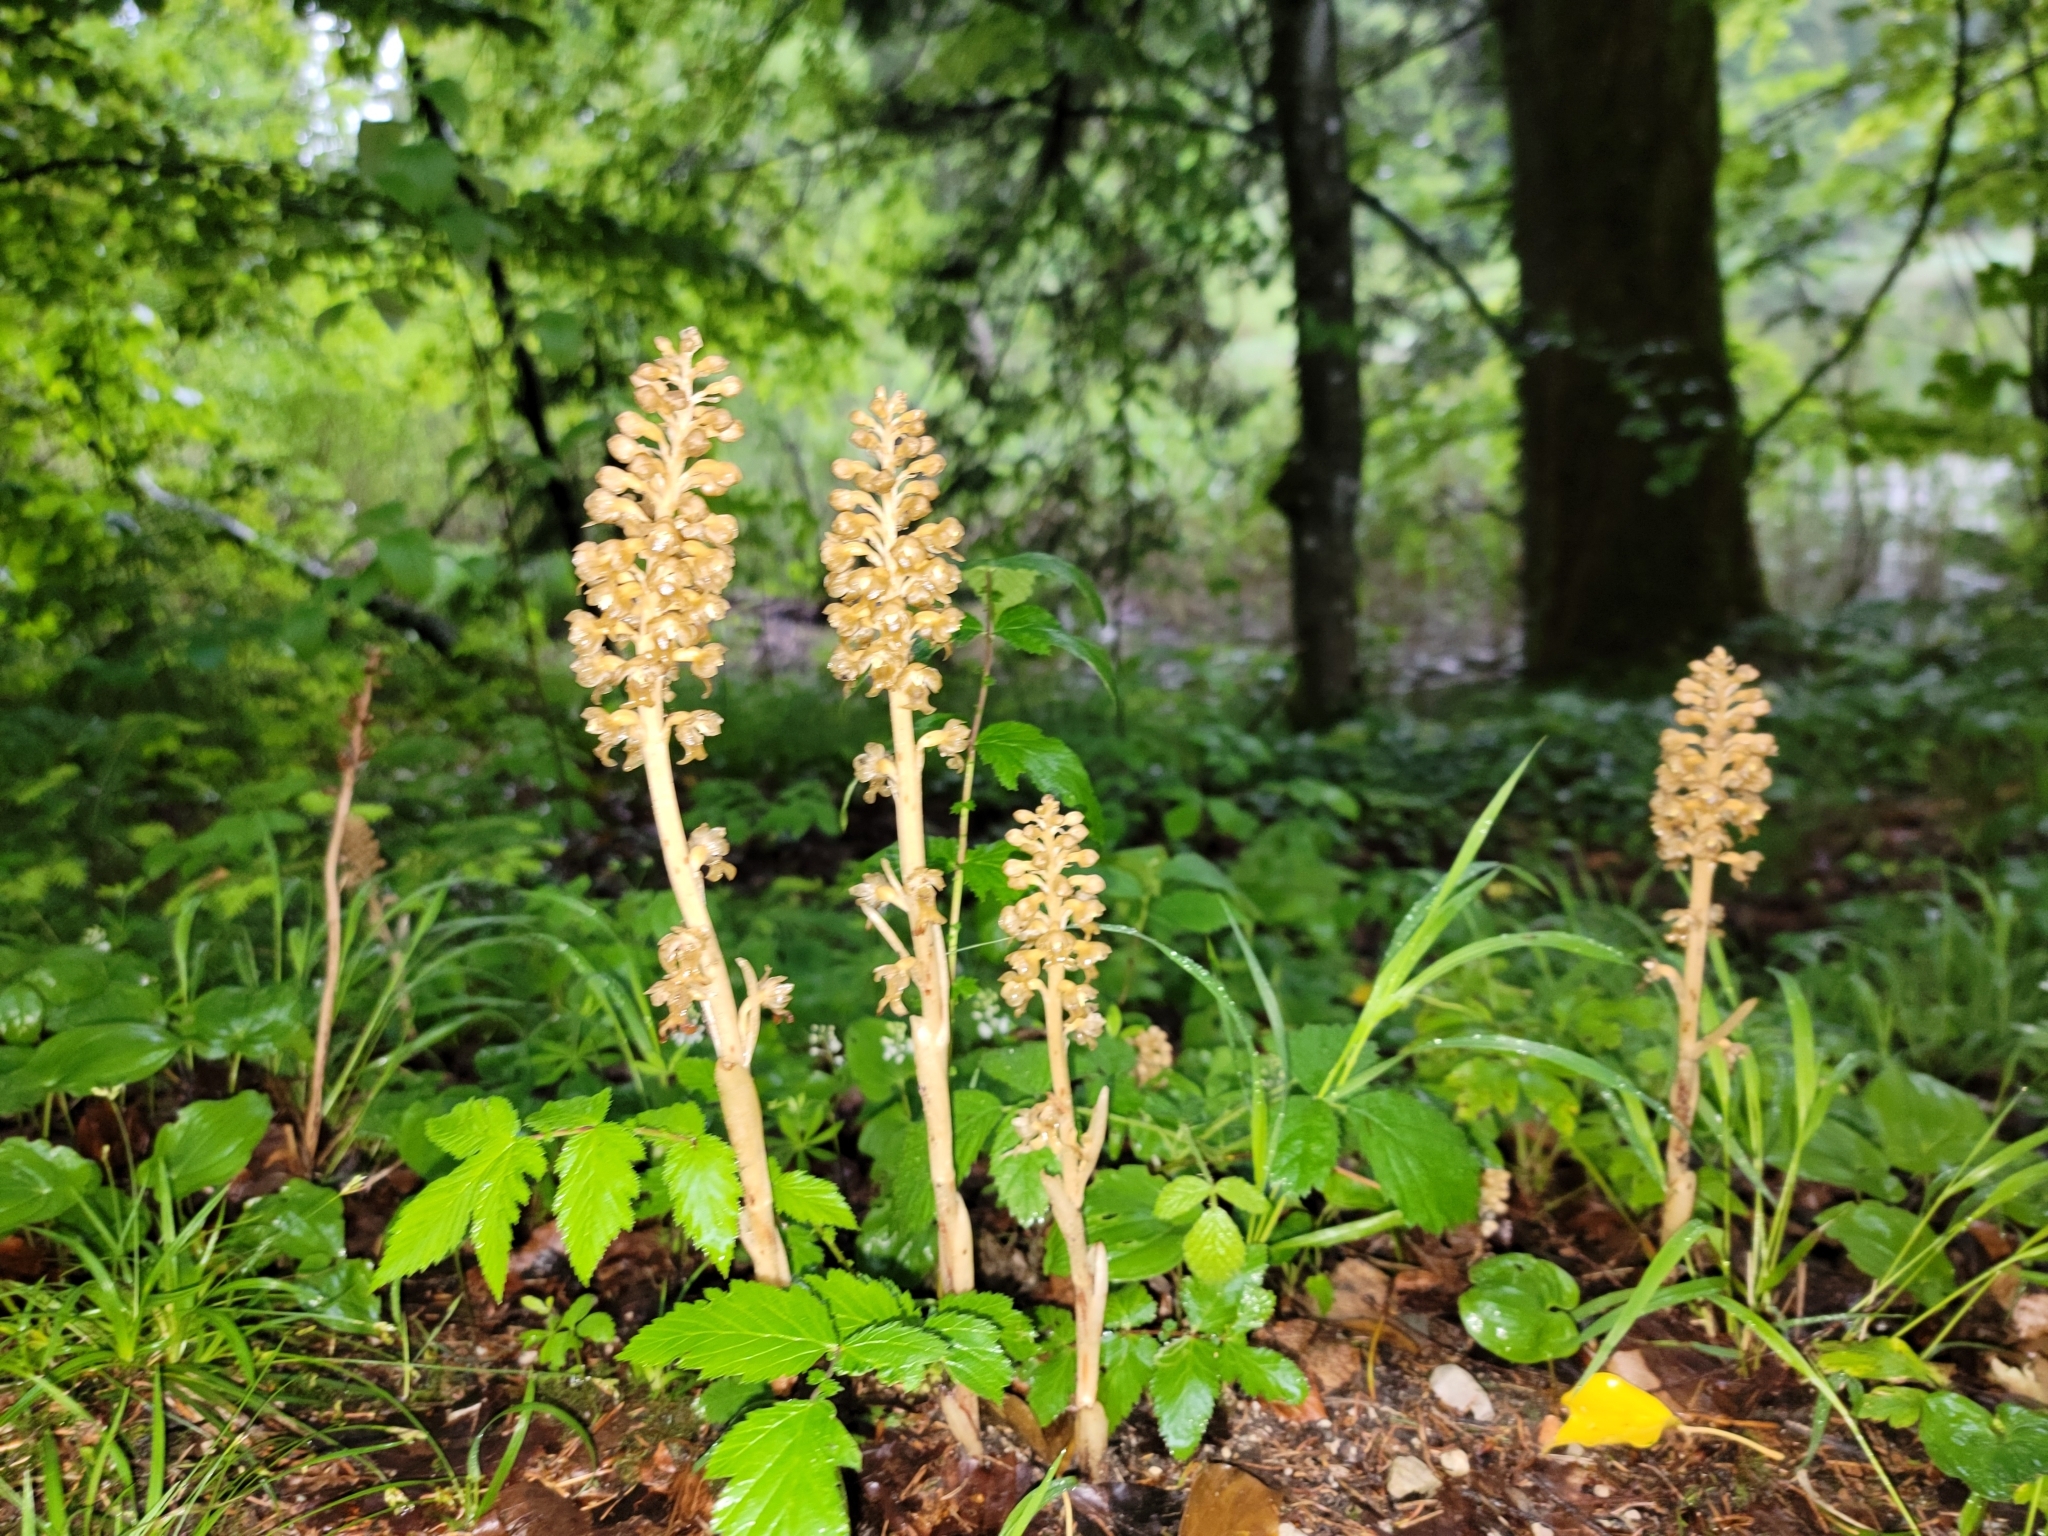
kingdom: Plantae
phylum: Tracheophyta
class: Liliopsida
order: Asparagales
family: Orchidaceae
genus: Neottia
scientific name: Neottia nidus-avis
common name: Bird's-nest orchid
